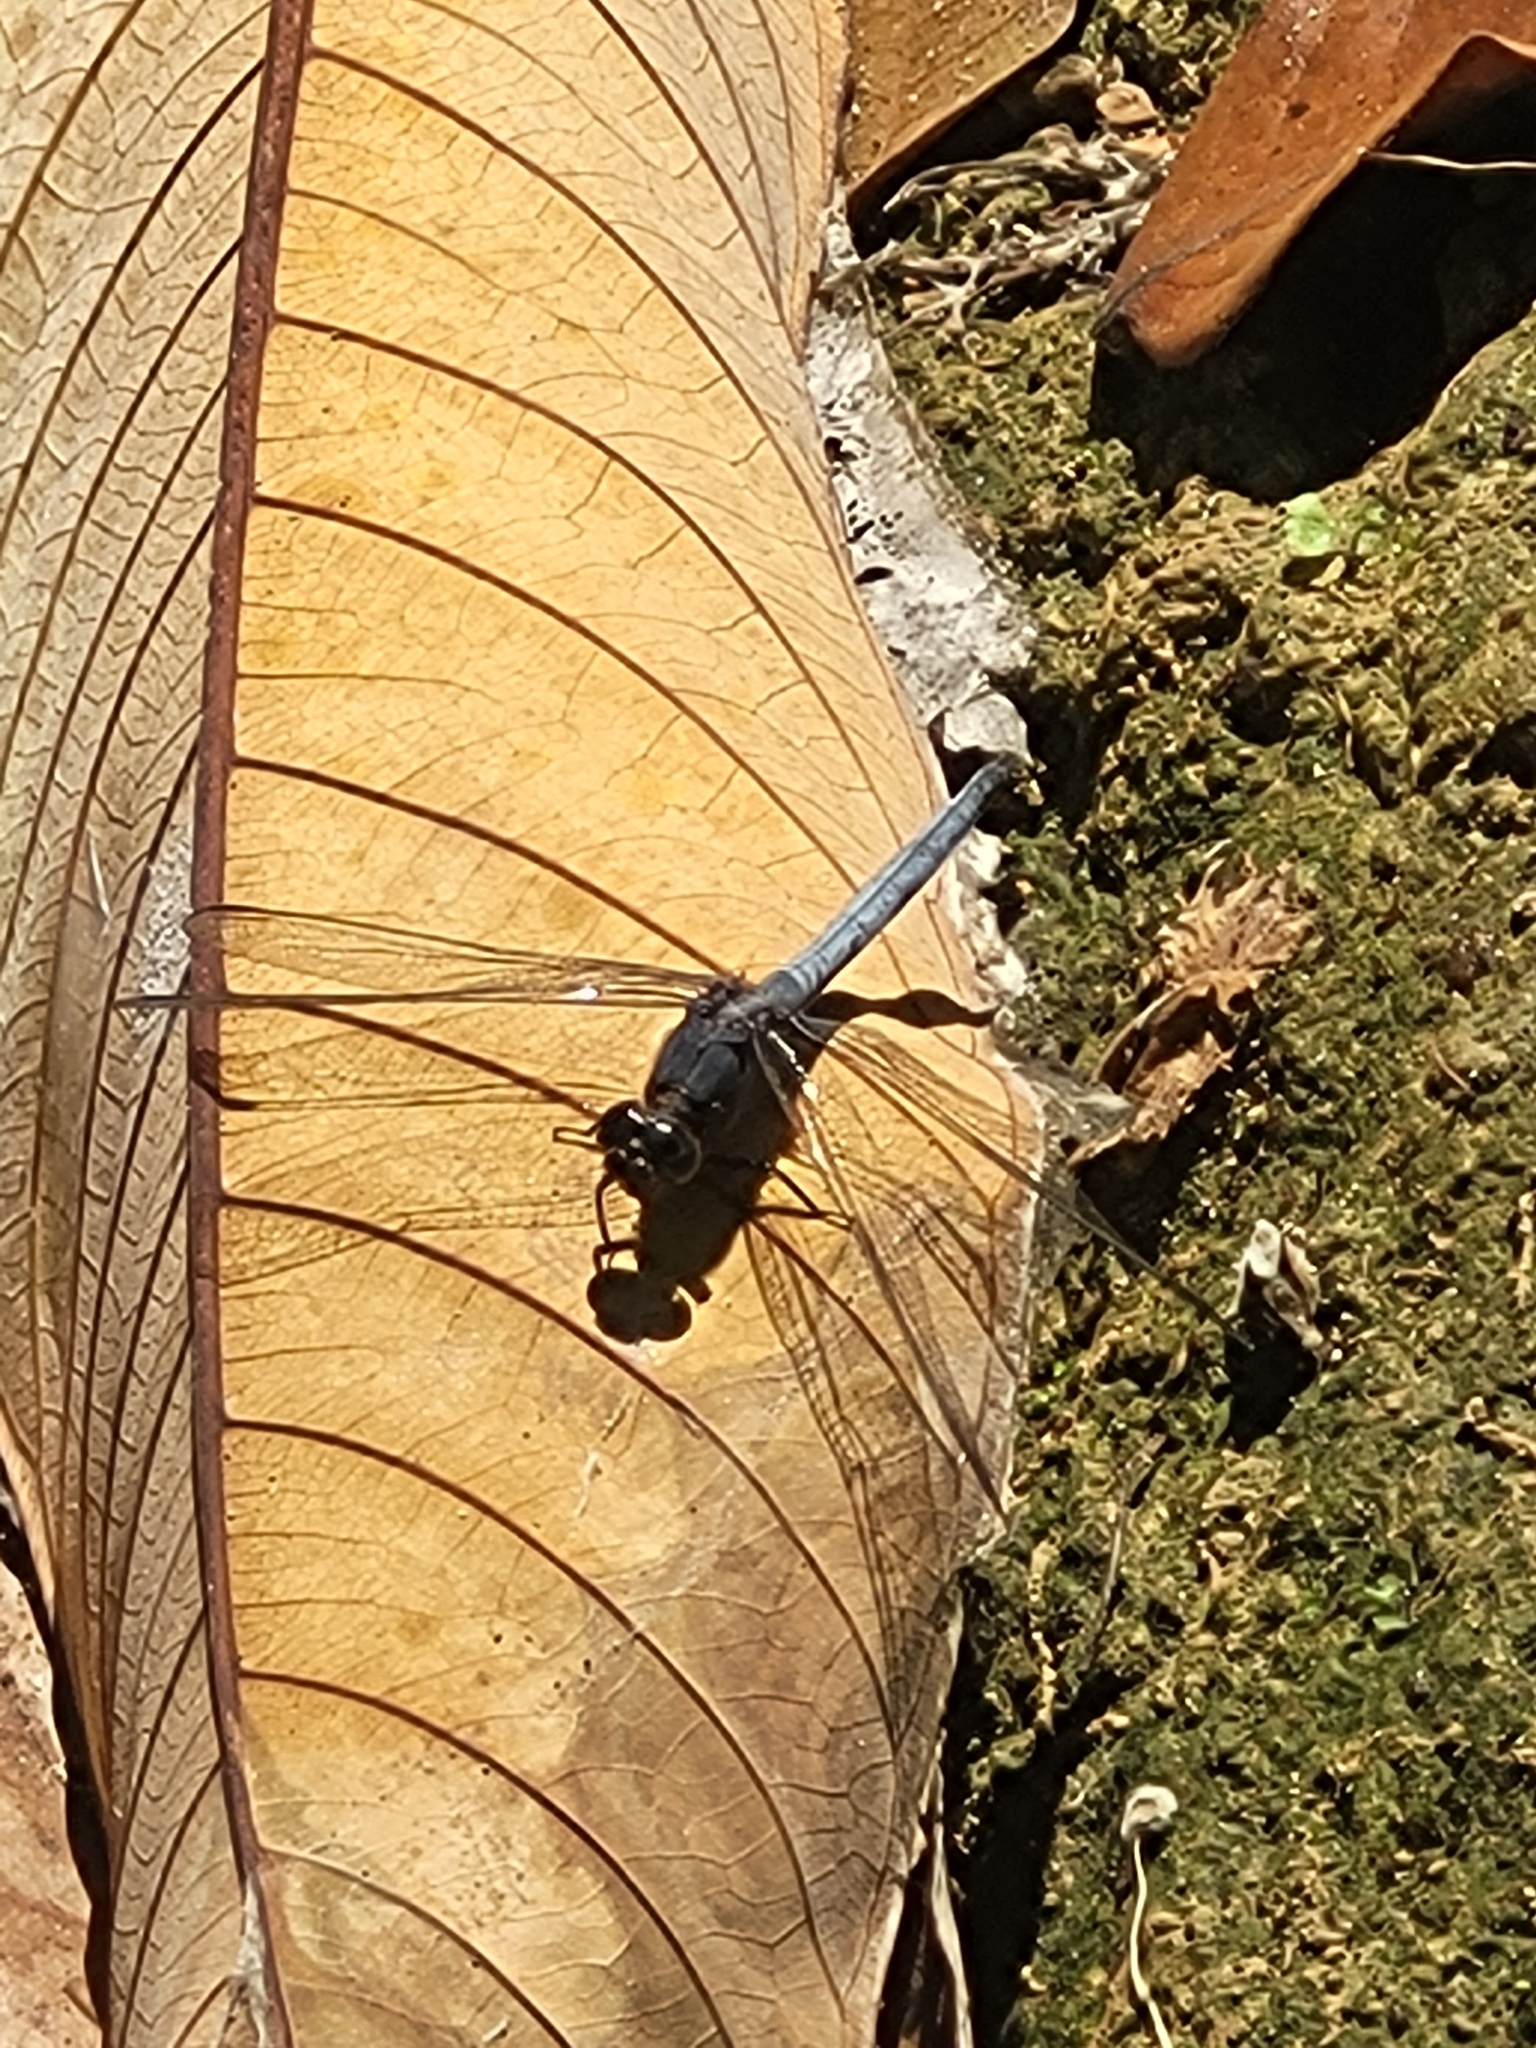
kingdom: Animalia
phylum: Arthropoda
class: Insecta
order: Odonata
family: Libellulidae
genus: Orthetrum
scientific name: Orthetrum glaucum
